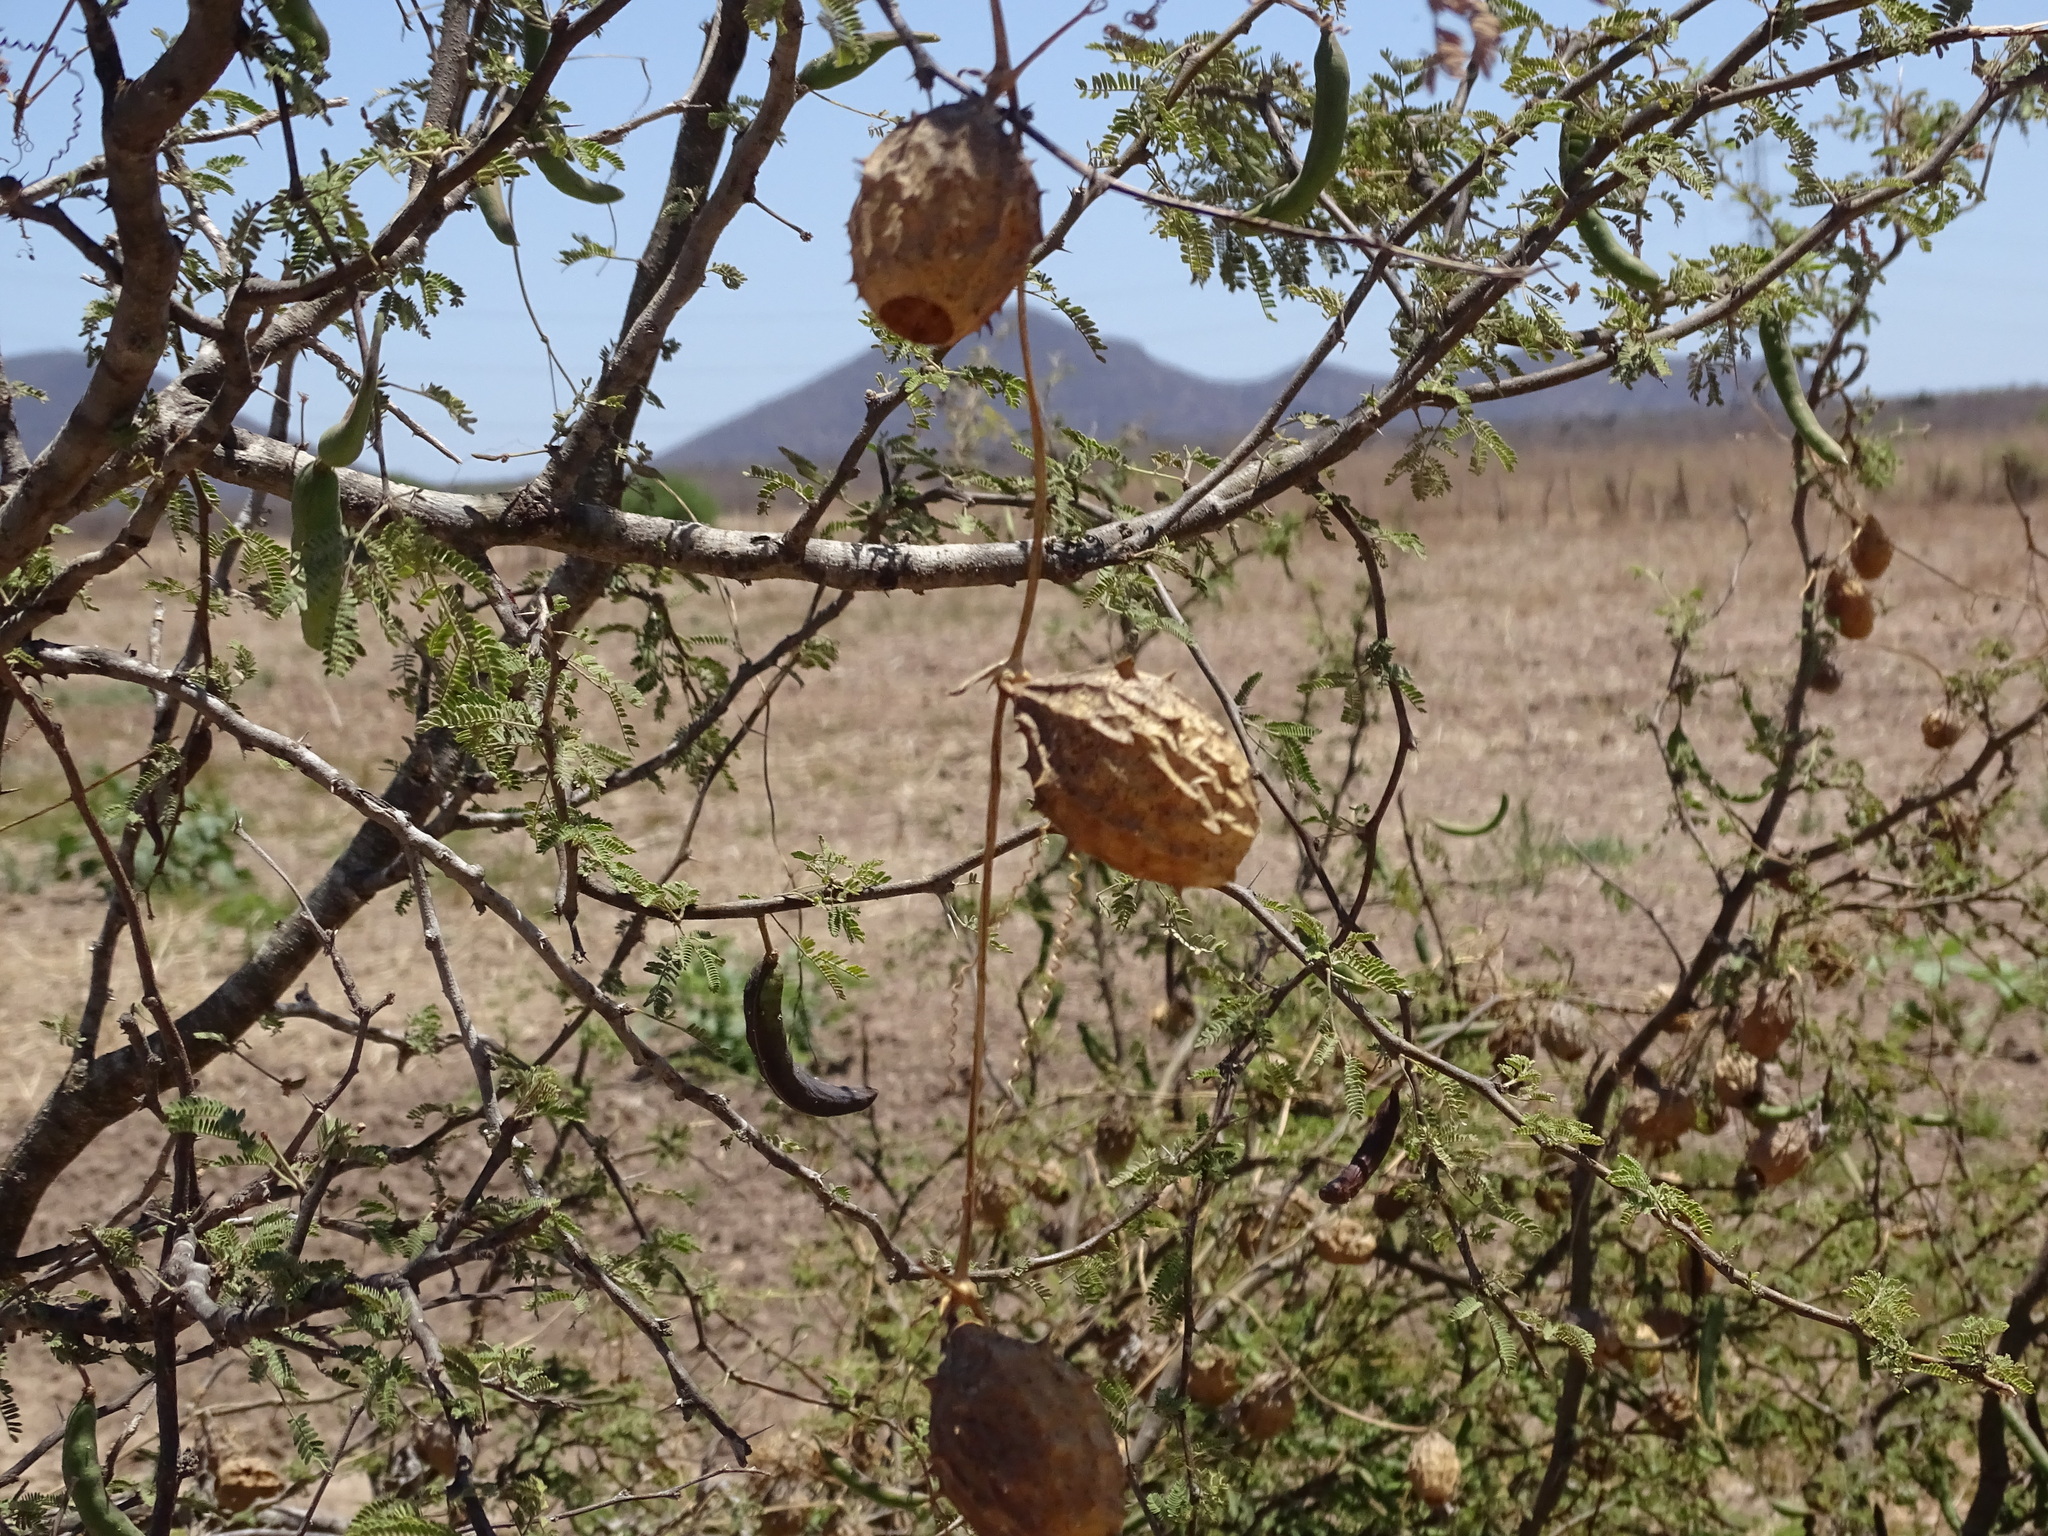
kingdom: Plantae
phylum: Tracheophyta
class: Magnoliopsida
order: Cucurbitales
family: Cucurbitaceae
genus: Luffa
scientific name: Luffa operculata
